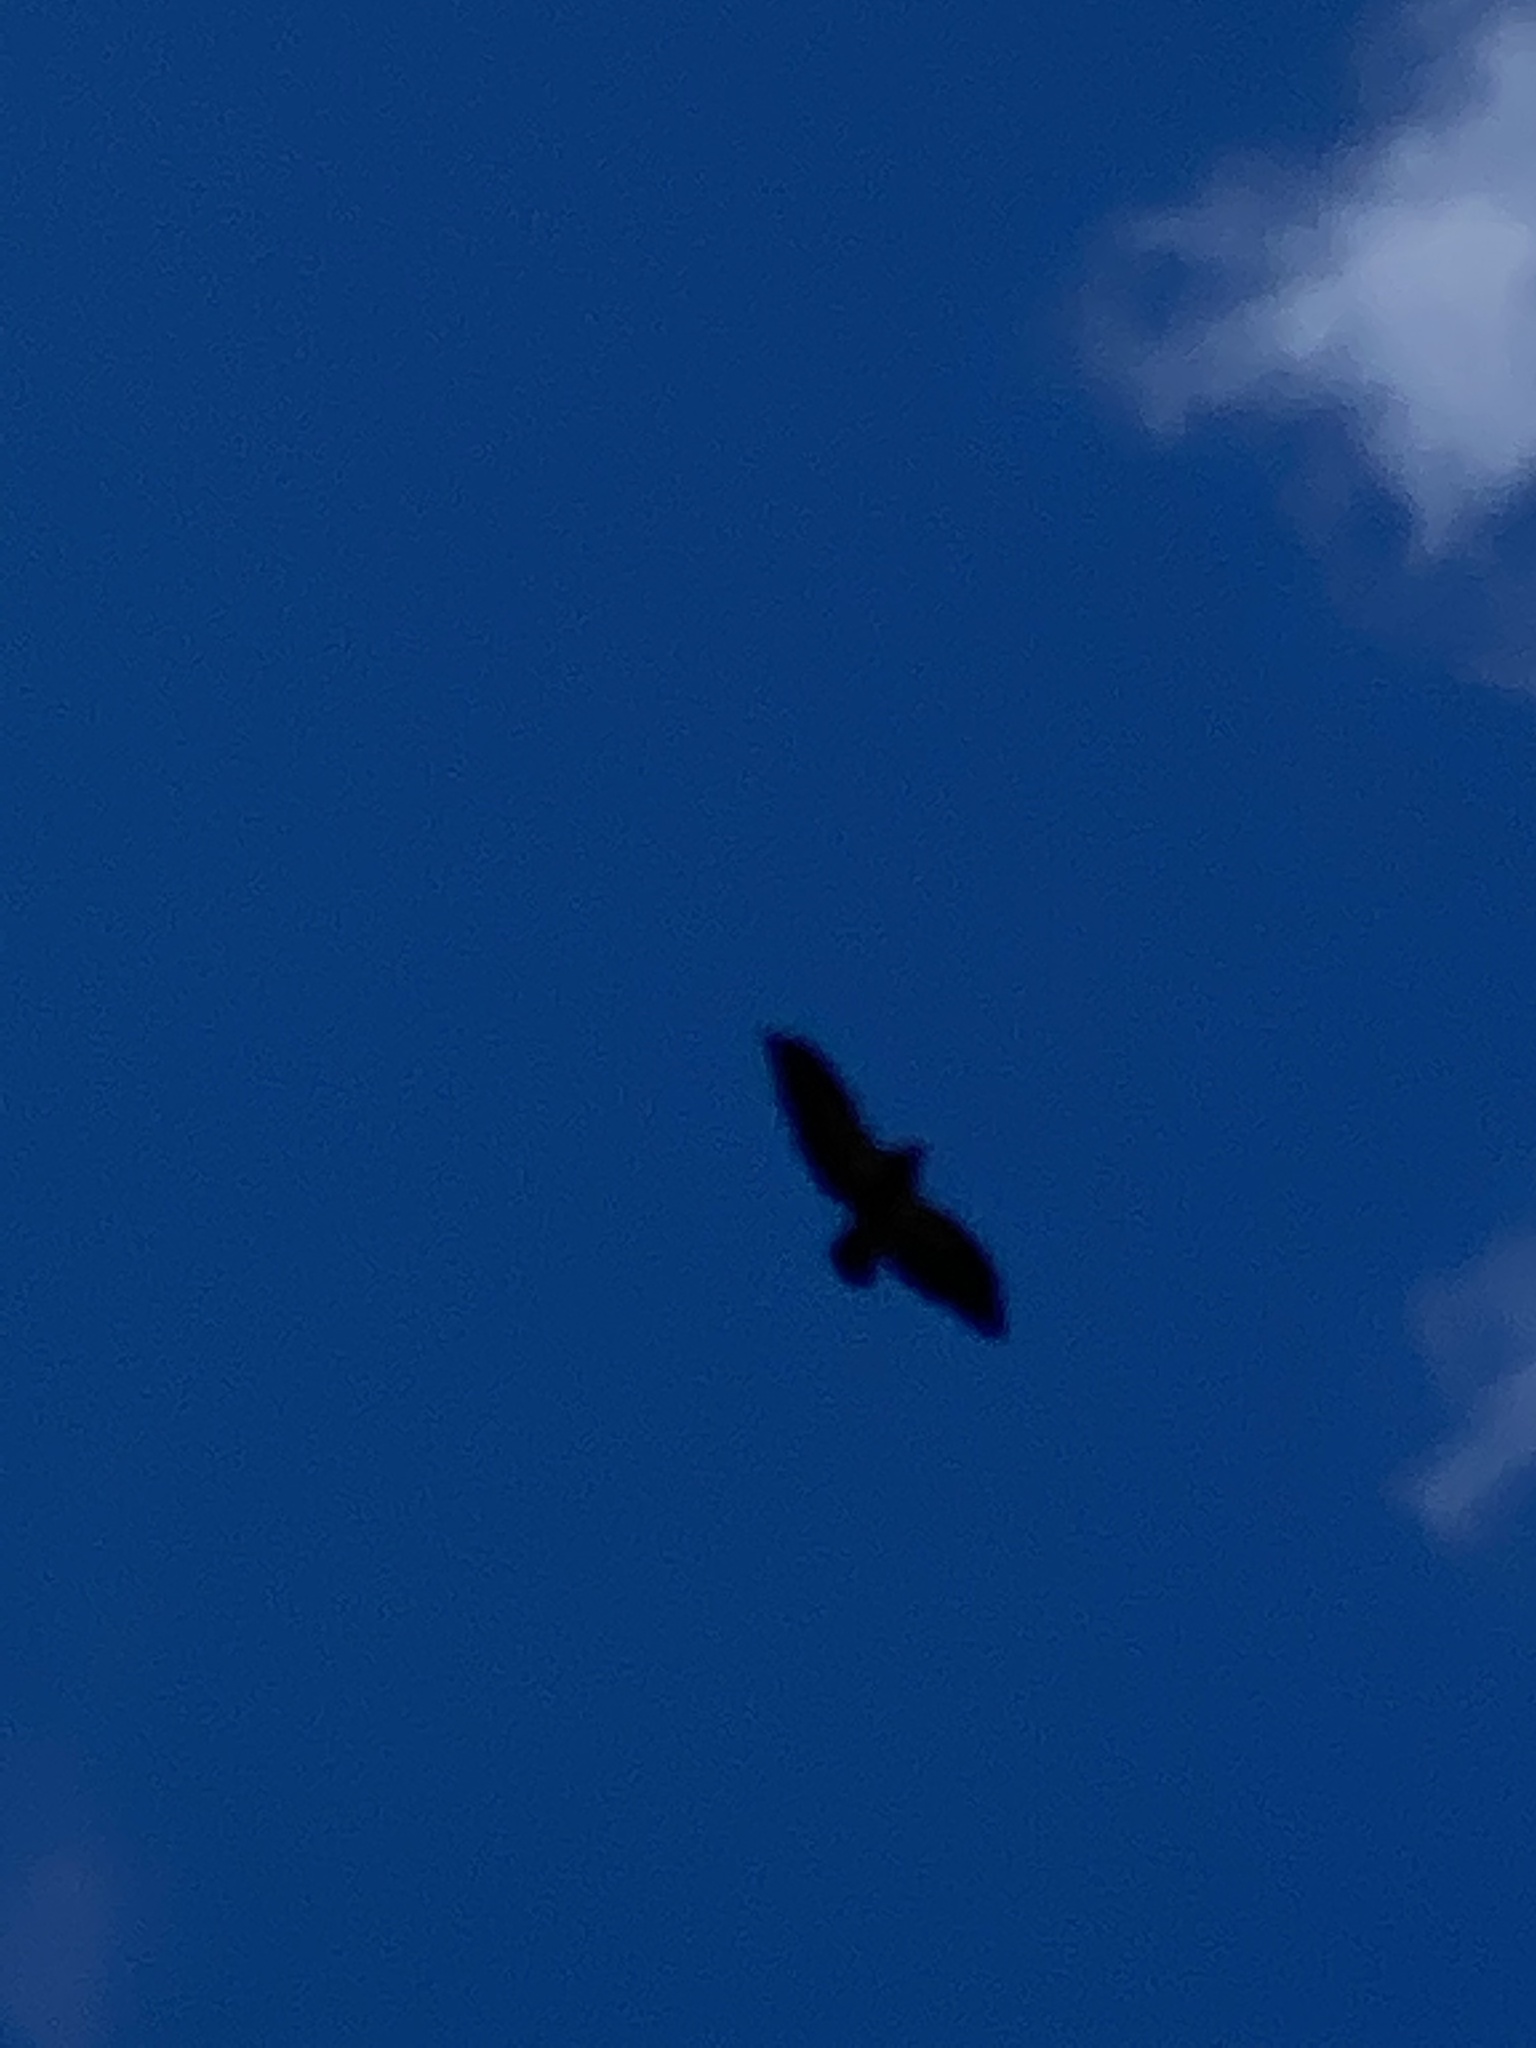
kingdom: Animalia
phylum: Chordata
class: Aves
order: Accipitriformes
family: Accipitridae
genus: Haliaeetus
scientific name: Haliaeetus leucocephalus
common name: Bald eagle
